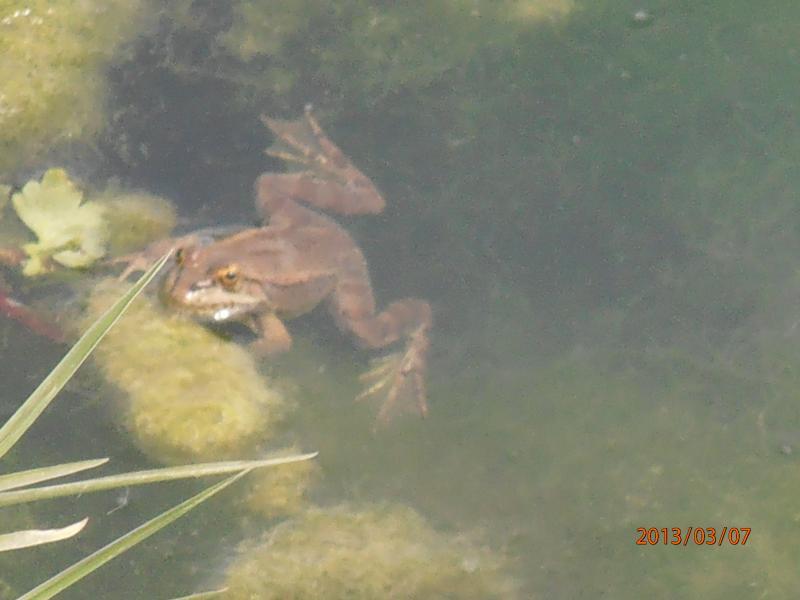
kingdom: Animalia
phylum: Chordata
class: Amphibia
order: Anura
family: Ranidae
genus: Pelophylax
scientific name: Pelophylax ridibundus
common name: Marsh frog
